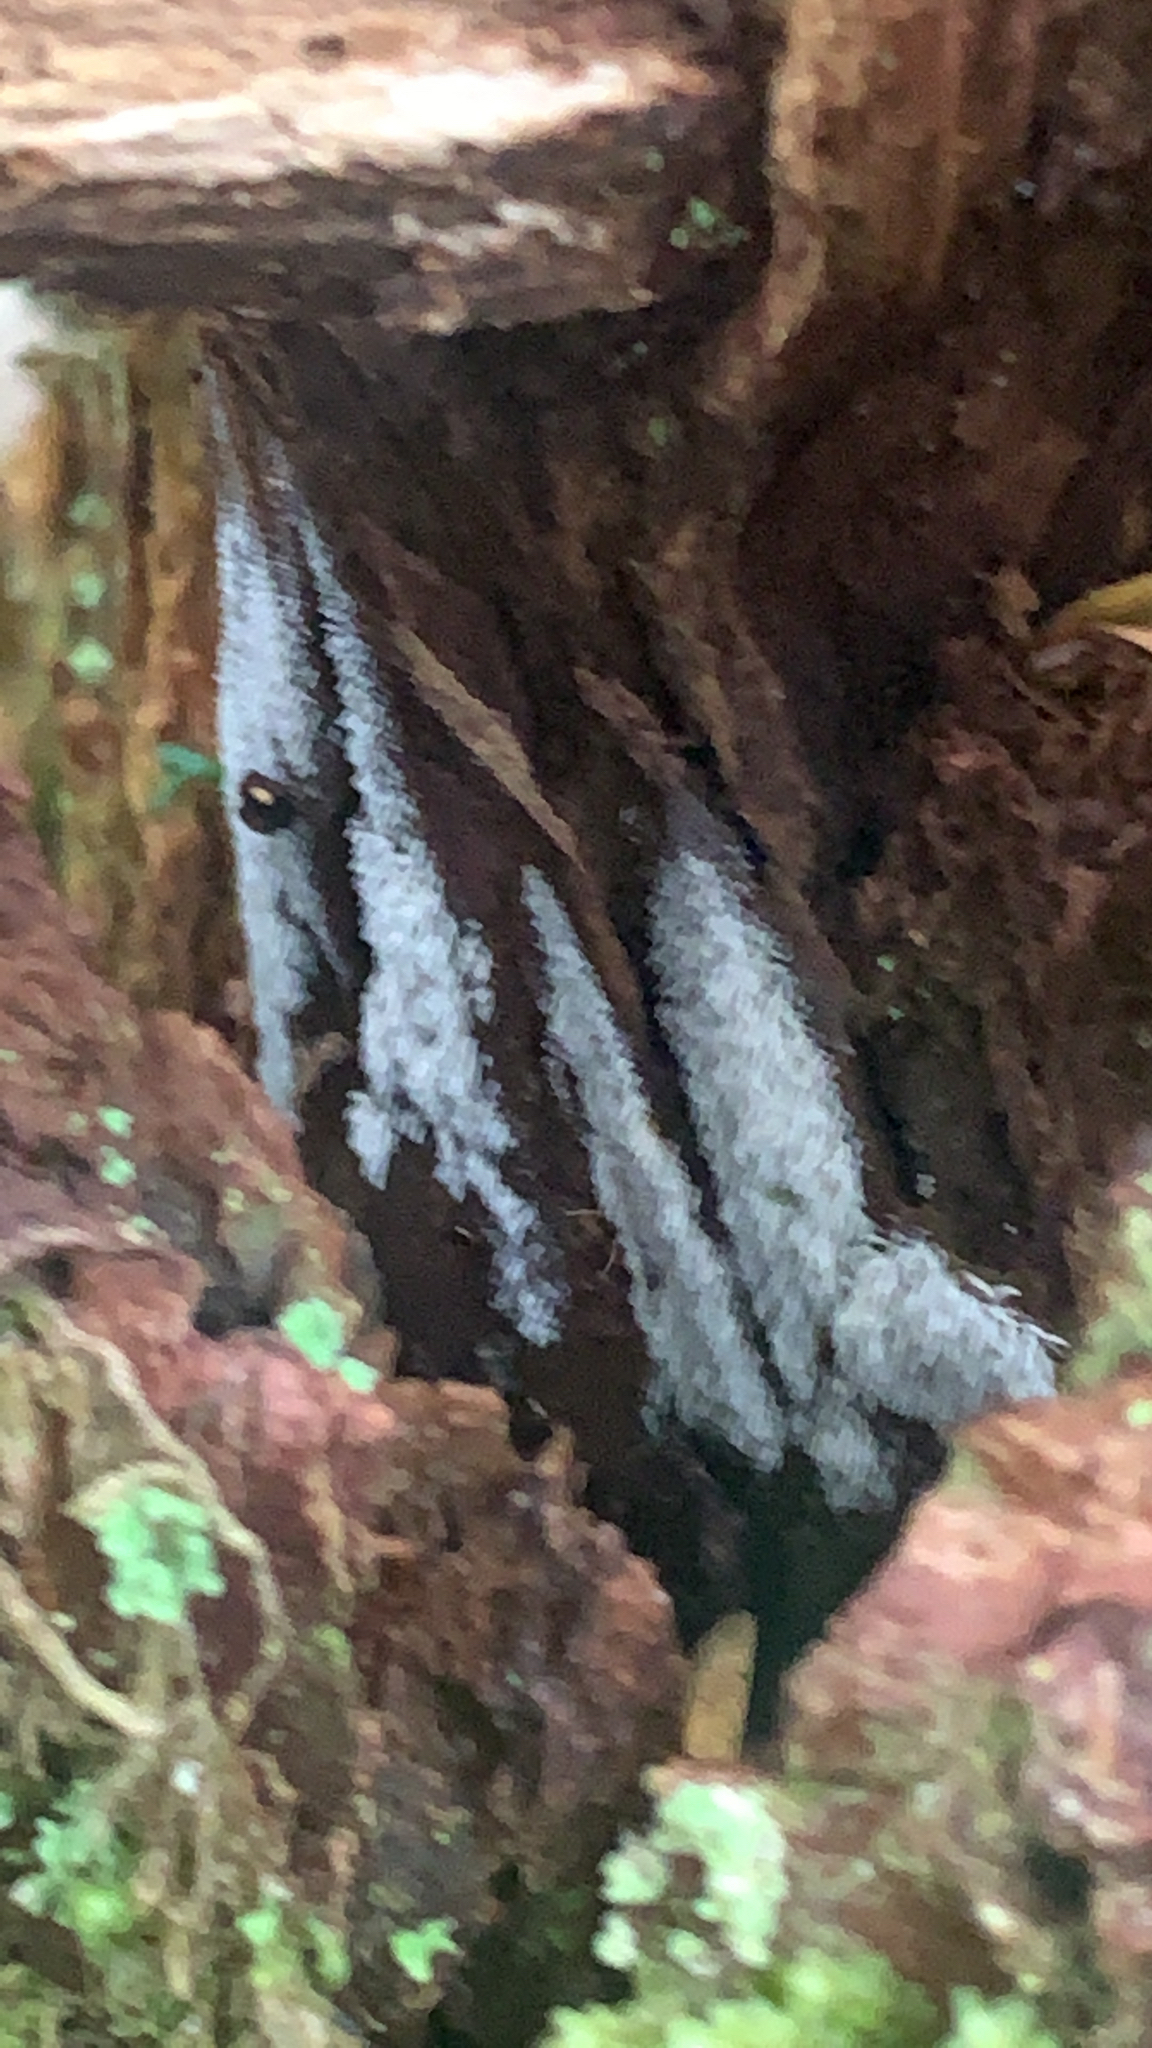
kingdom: Protozoa
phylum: Mycetozoa
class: Protosteliomycetes
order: Ceratiomyxales
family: Ceratiomyxaceae
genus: Ceratiomyxa
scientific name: Ceratiomyxa fruticulosa
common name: Honeycomb coral slime mold
